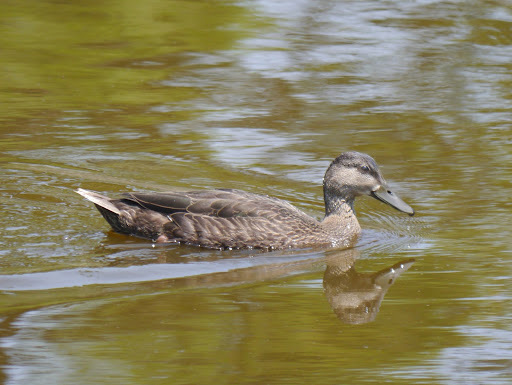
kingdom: Animalia
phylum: Chordata
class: Aves
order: Anseriformes
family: Anatidae
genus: Anas
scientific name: Anas
